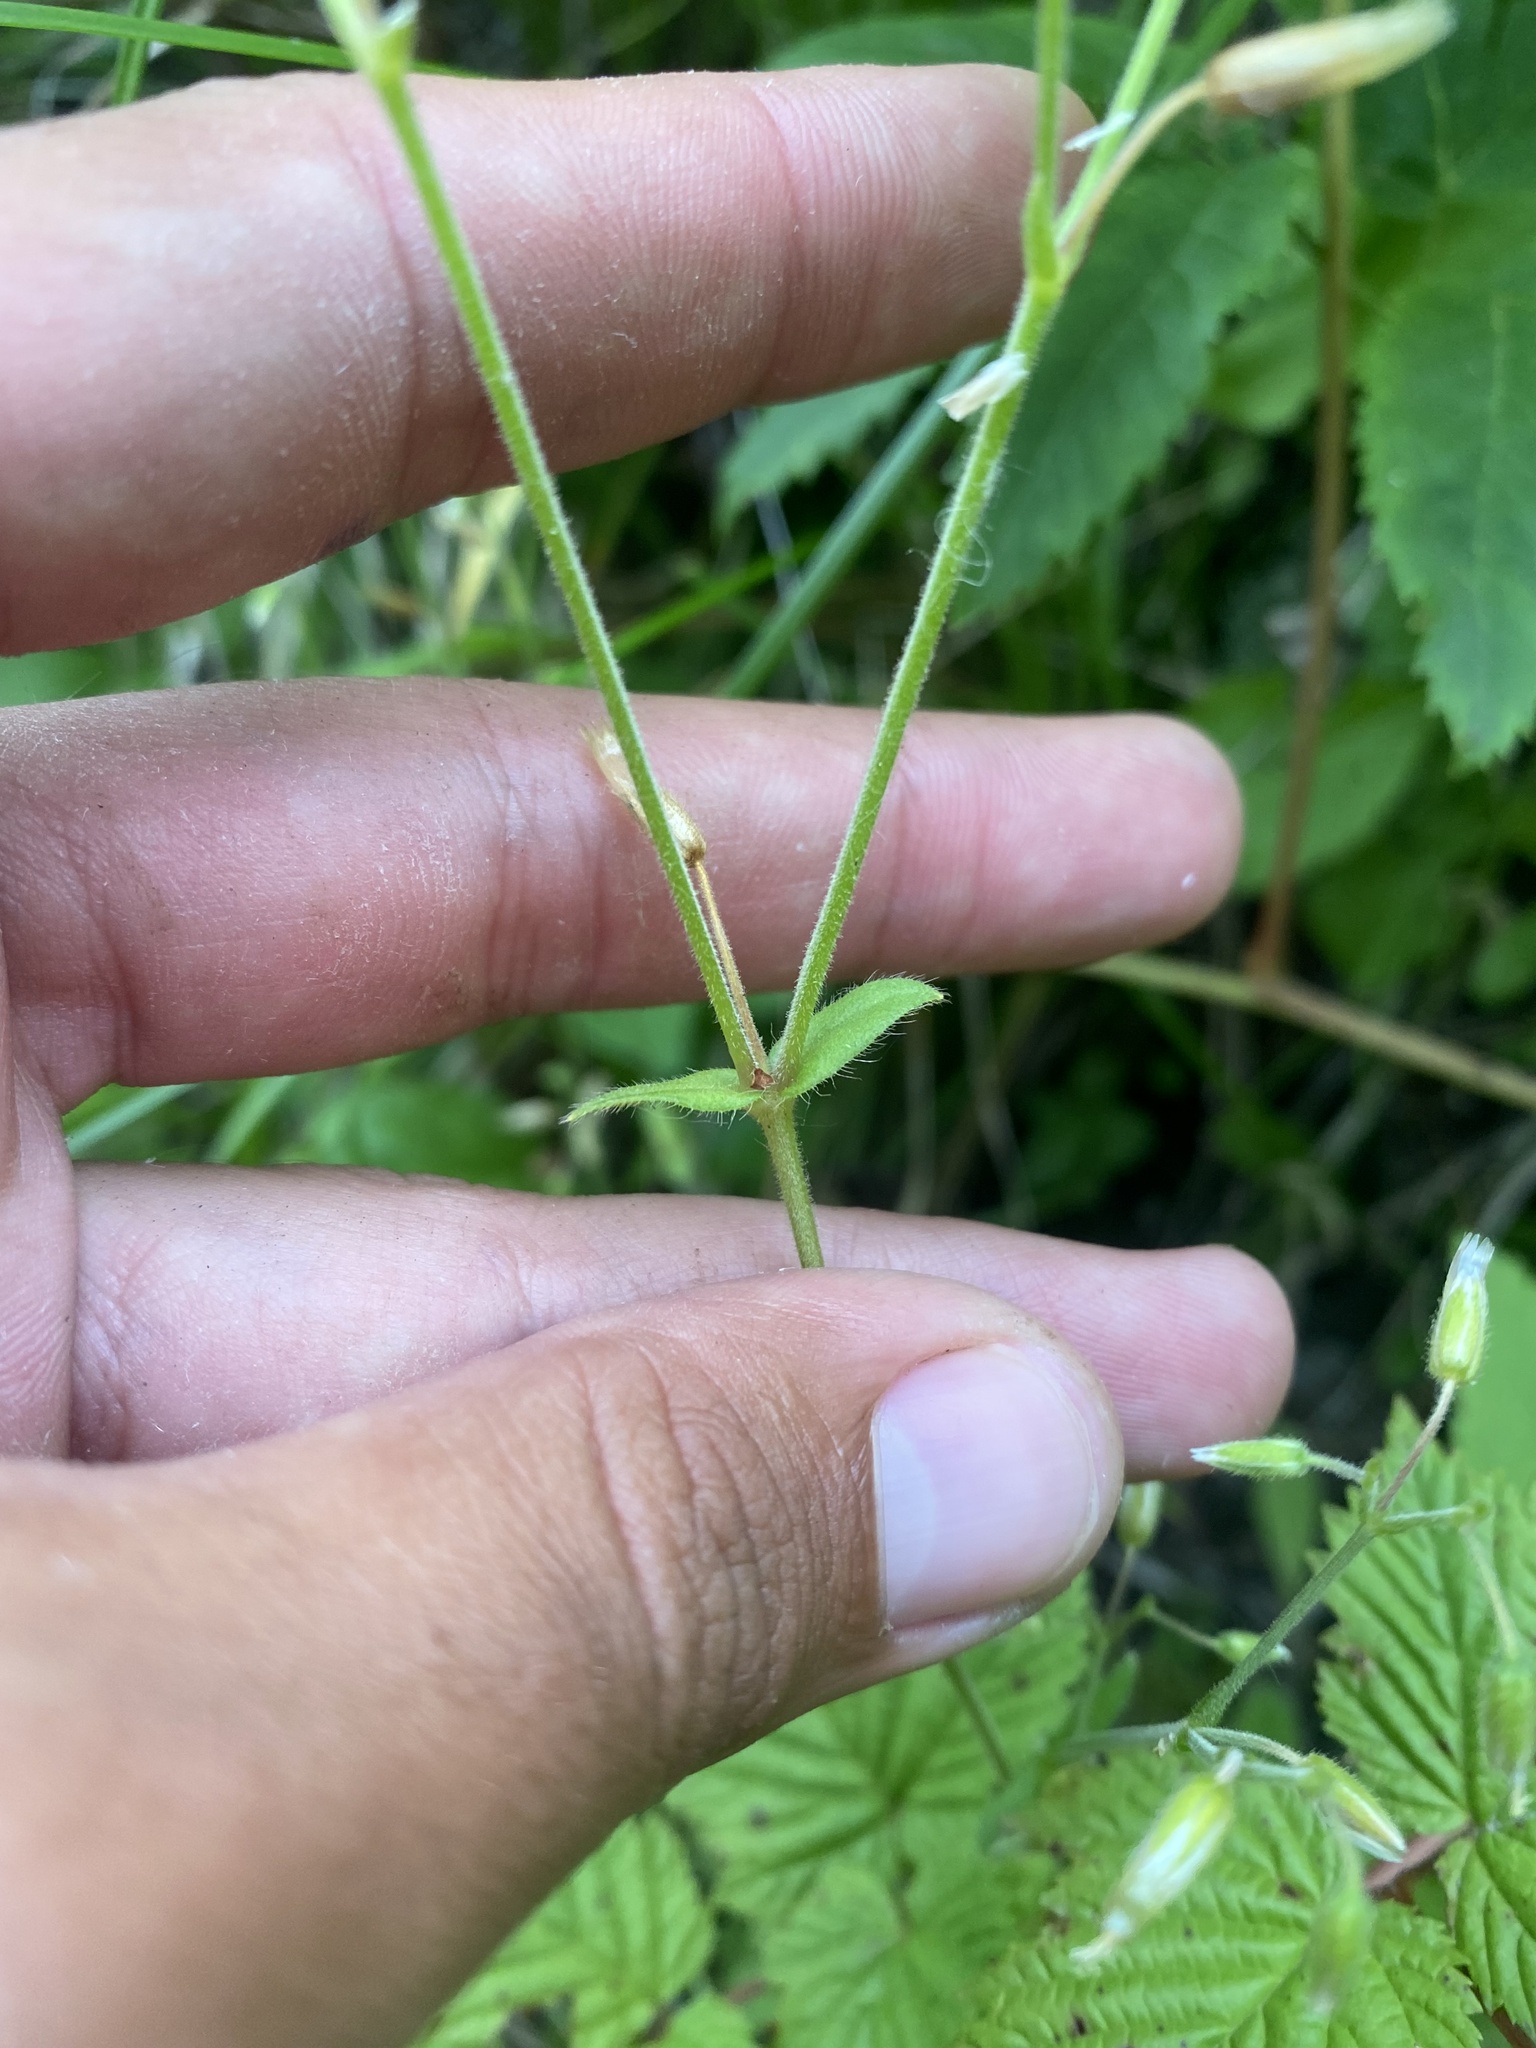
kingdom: Plantae
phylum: Tracheophyta
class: Magnoliopsida
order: Caryophyllales
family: Caryophyllaceae
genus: Cerastium
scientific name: Cerastium holosteoides
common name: Big chickweed
